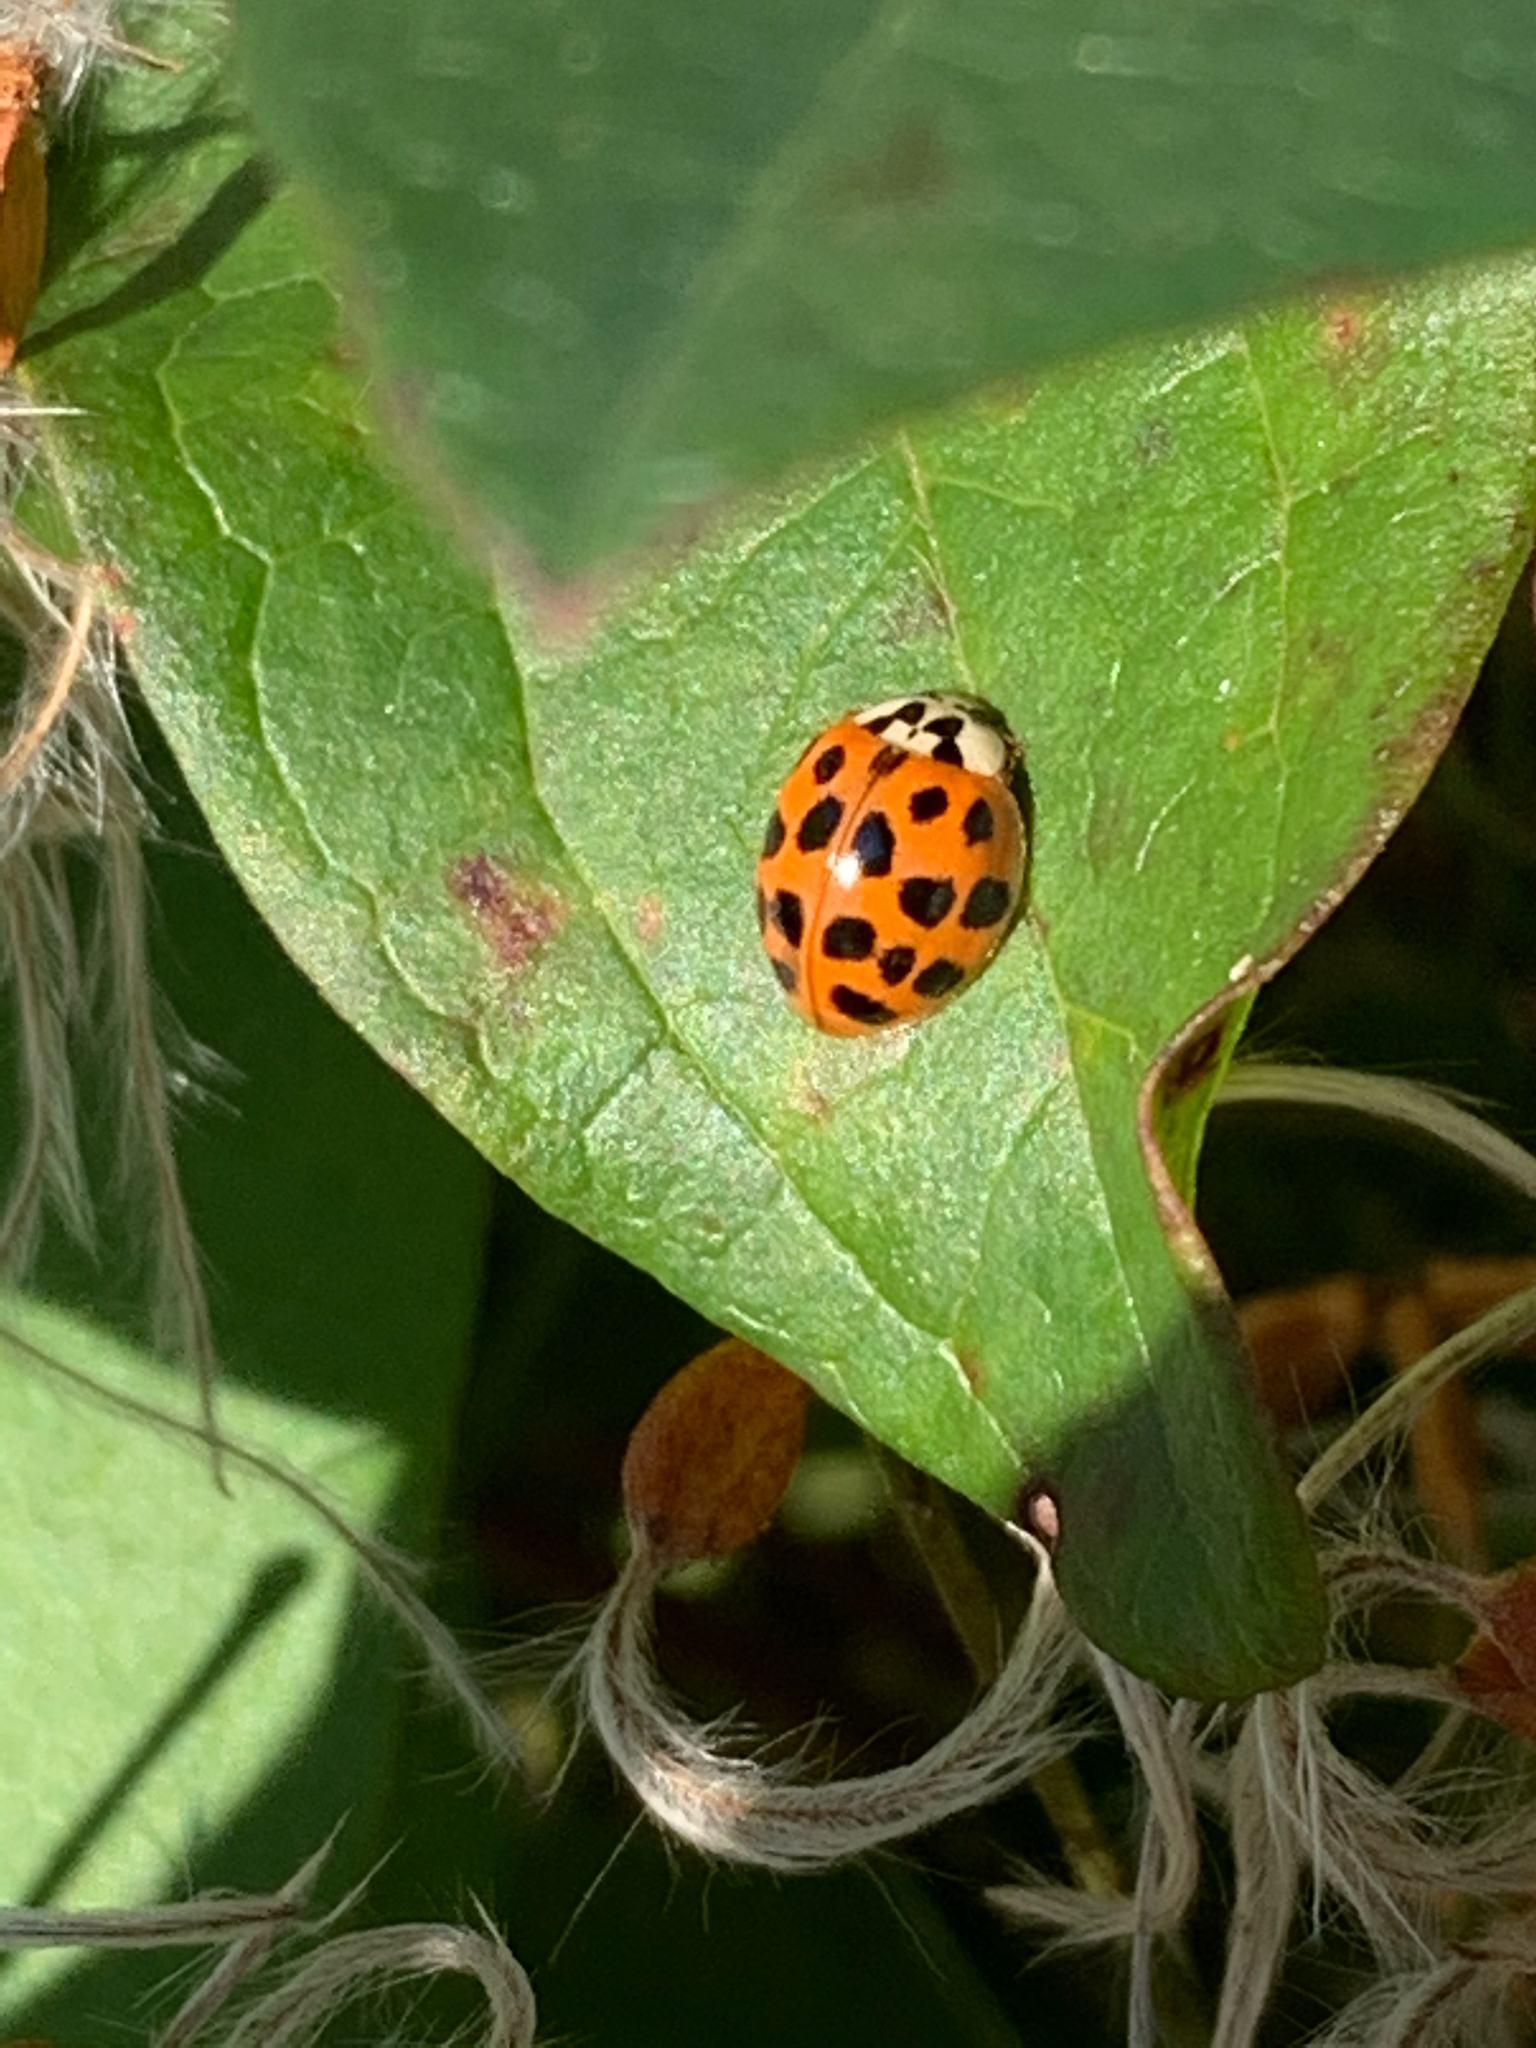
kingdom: Animalia
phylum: Arthropoda
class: Insecta
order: Coleoptera
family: Coccinellidae
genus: Harmonia
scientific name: Harmonia axyridis
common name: Harlequin ladybird
